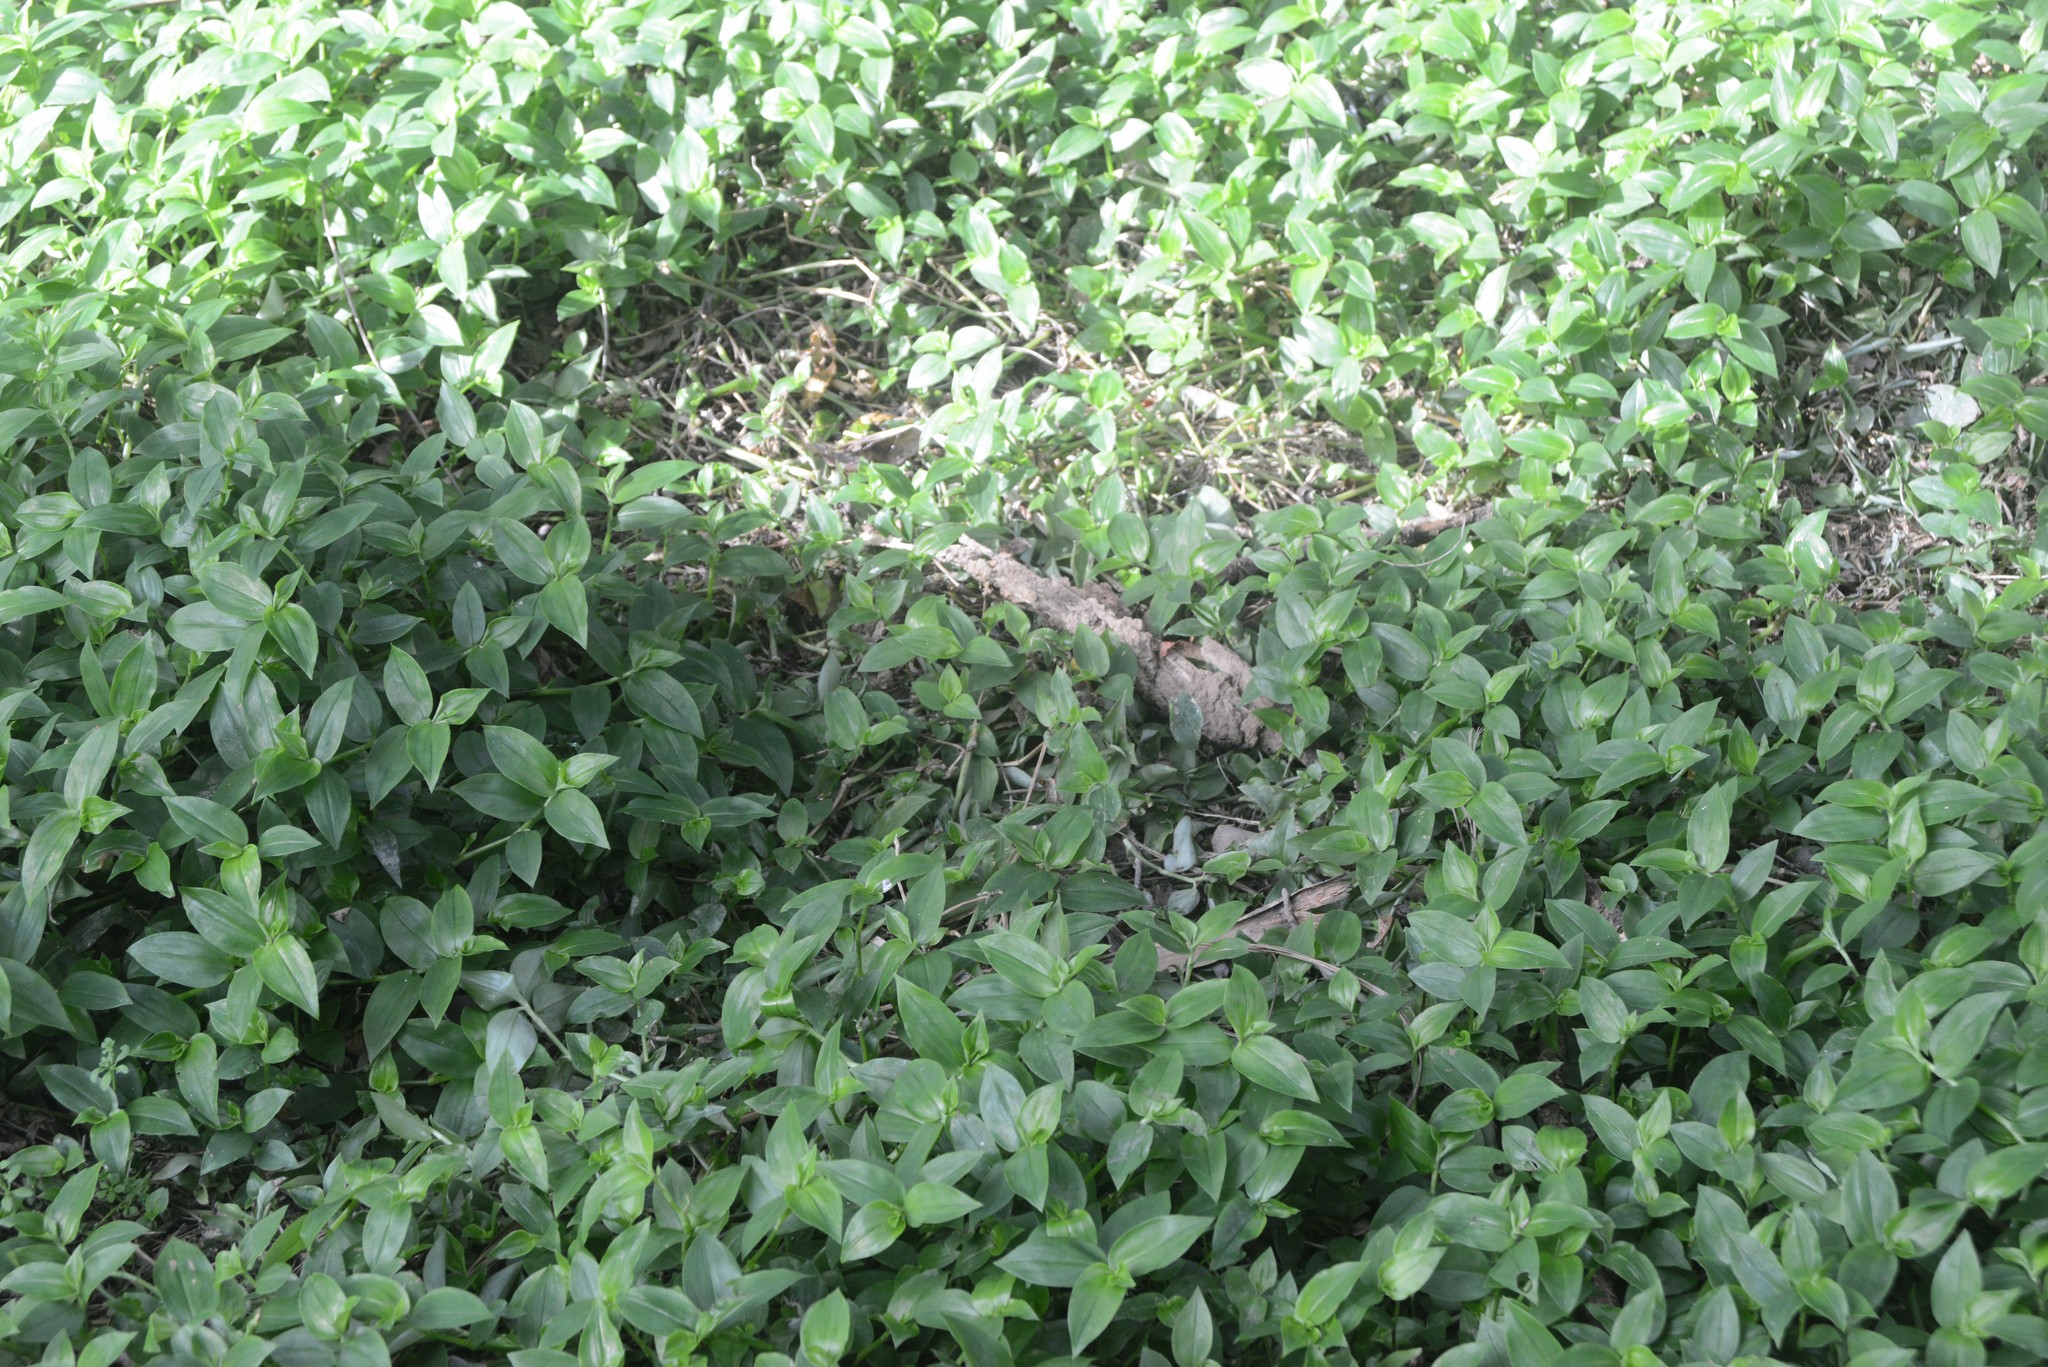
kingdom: Plantae
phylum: Tracheophyta
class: Liliopsida
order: Commelinales
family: Commelinaceae
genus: Tradescantia
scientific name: Tradescantia fluminensis
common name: Wandering-jew
